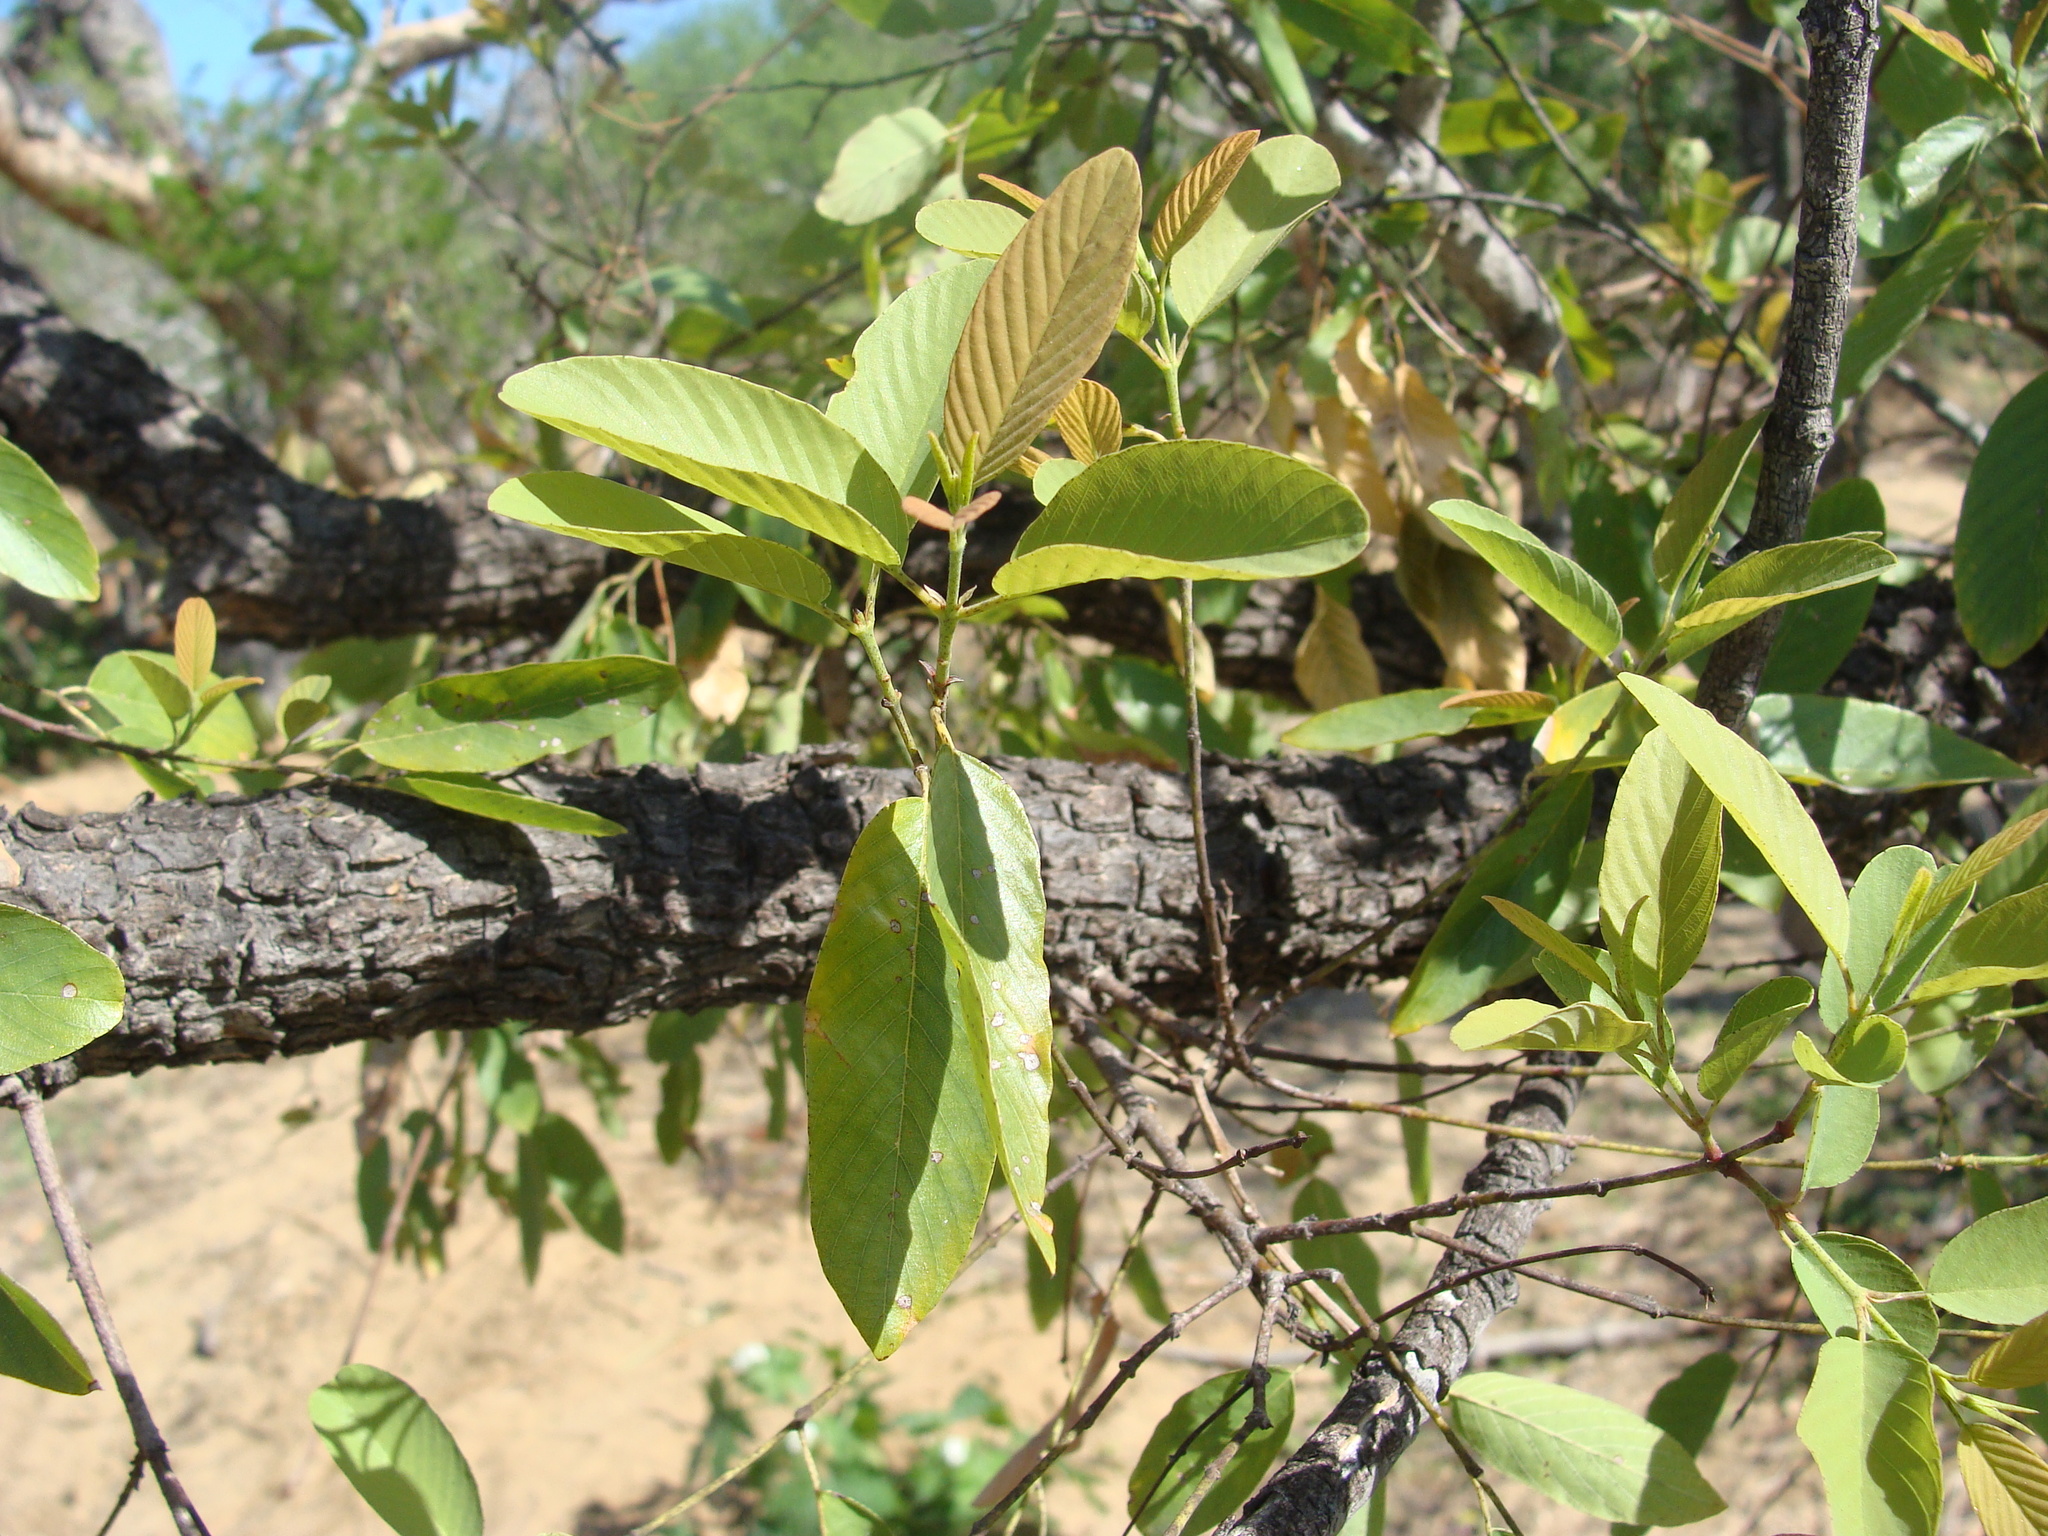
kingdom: Plantae
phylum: Tracheophyta
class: Magnoliopsida
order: Rosales
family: Rhamnaceae
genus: Karwinskia
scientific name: Karwinskia humboldtiana
